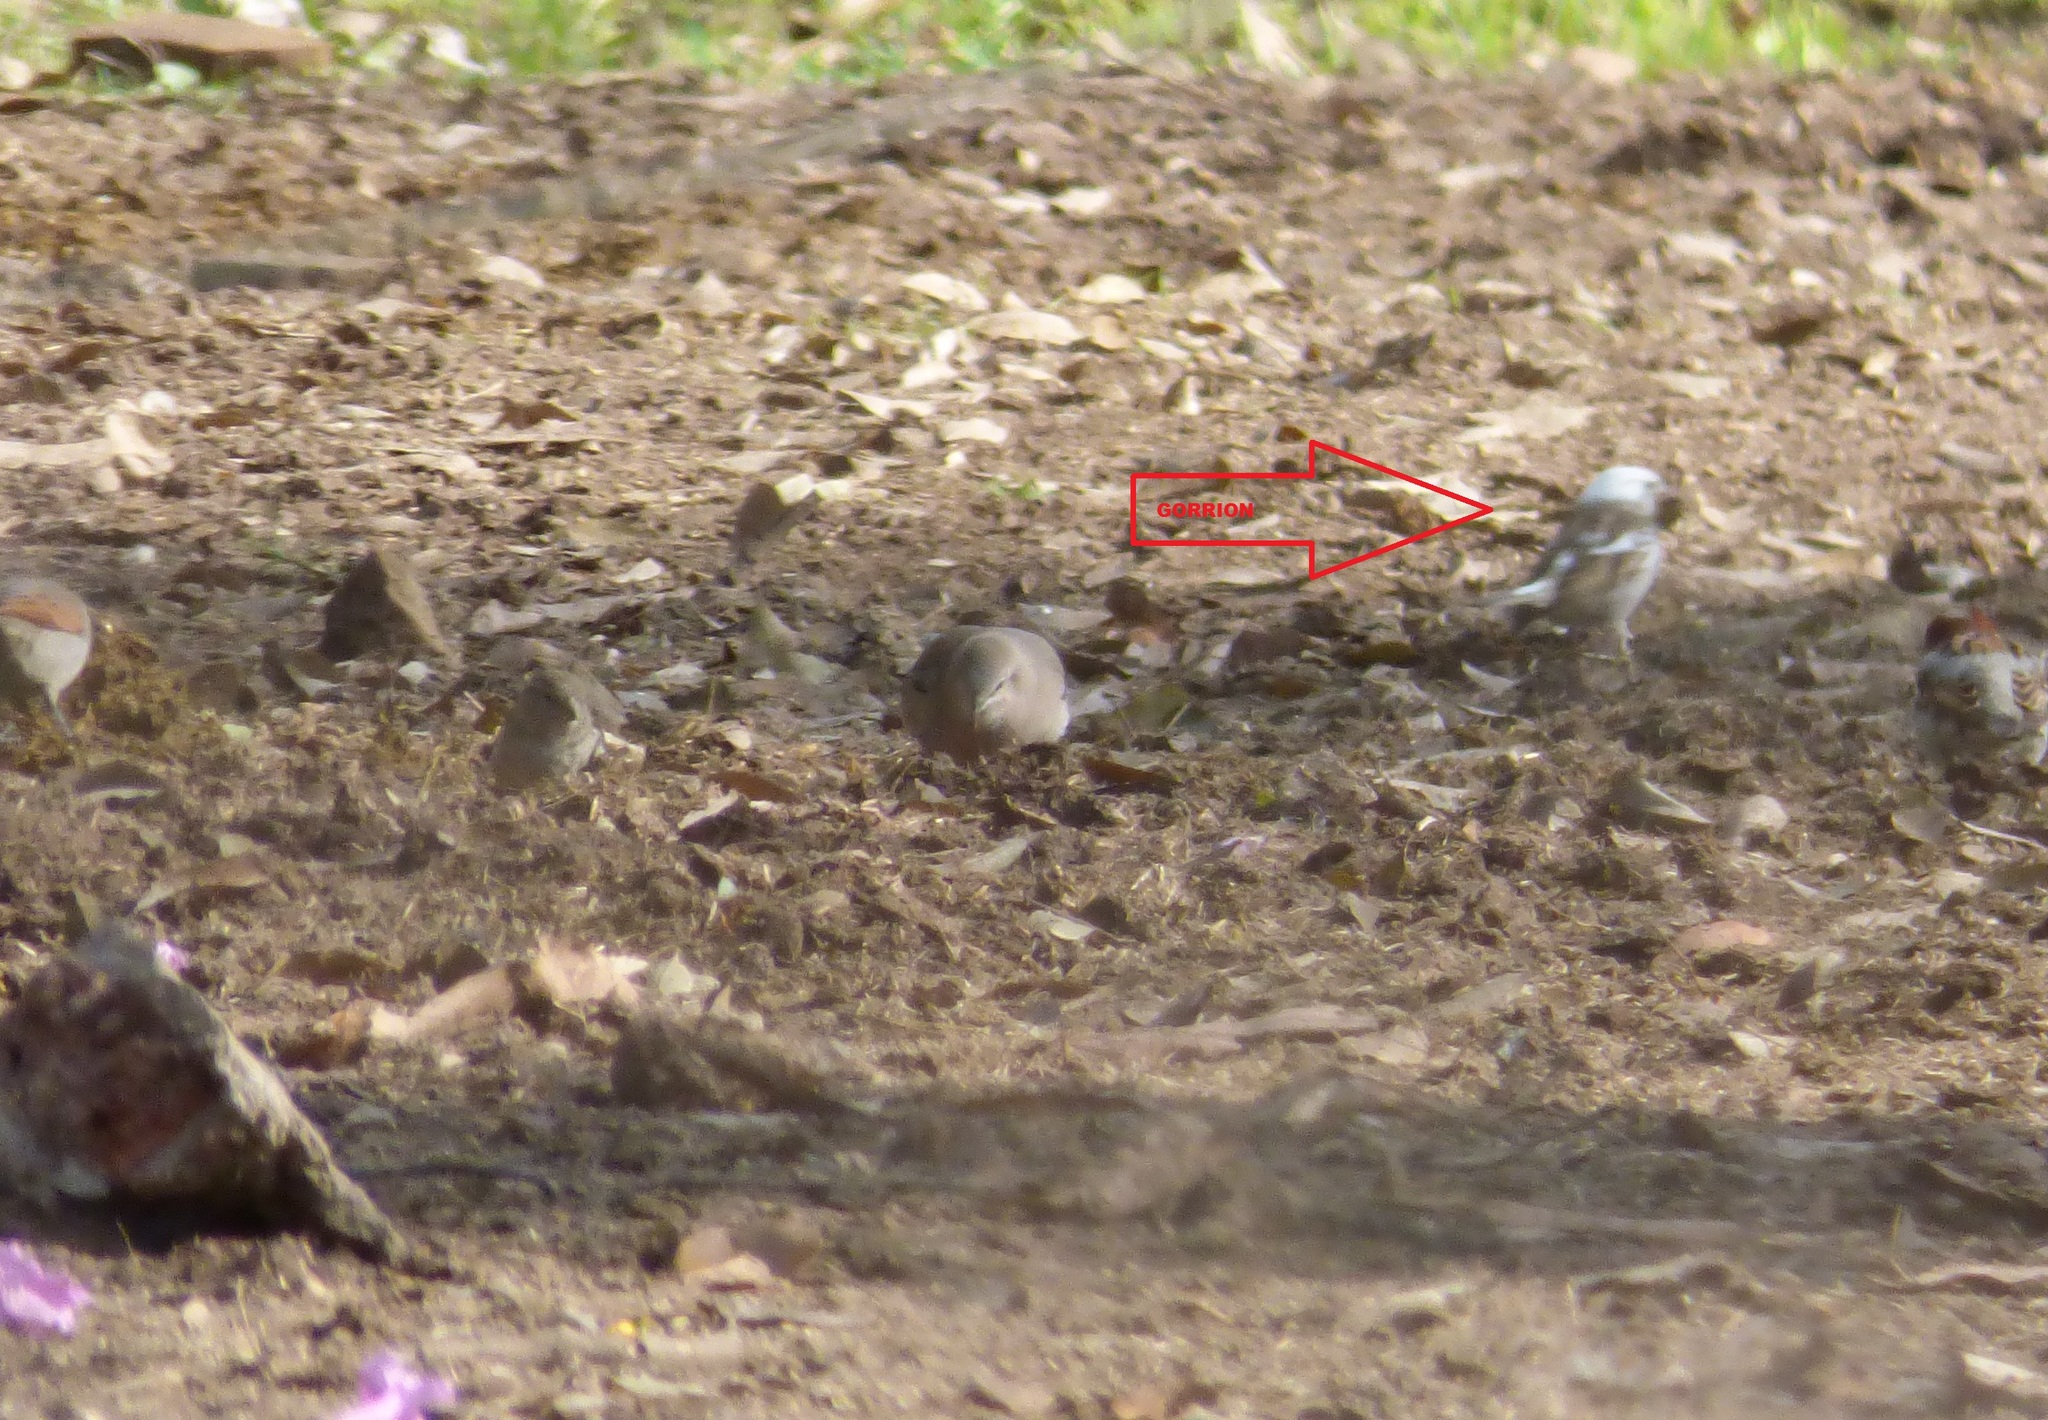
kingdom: Animalia
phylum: Chordata
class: Aves
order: Passeriformes
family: Passeridae
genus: Passer
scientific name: Passer domesticus
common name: House sparrow
